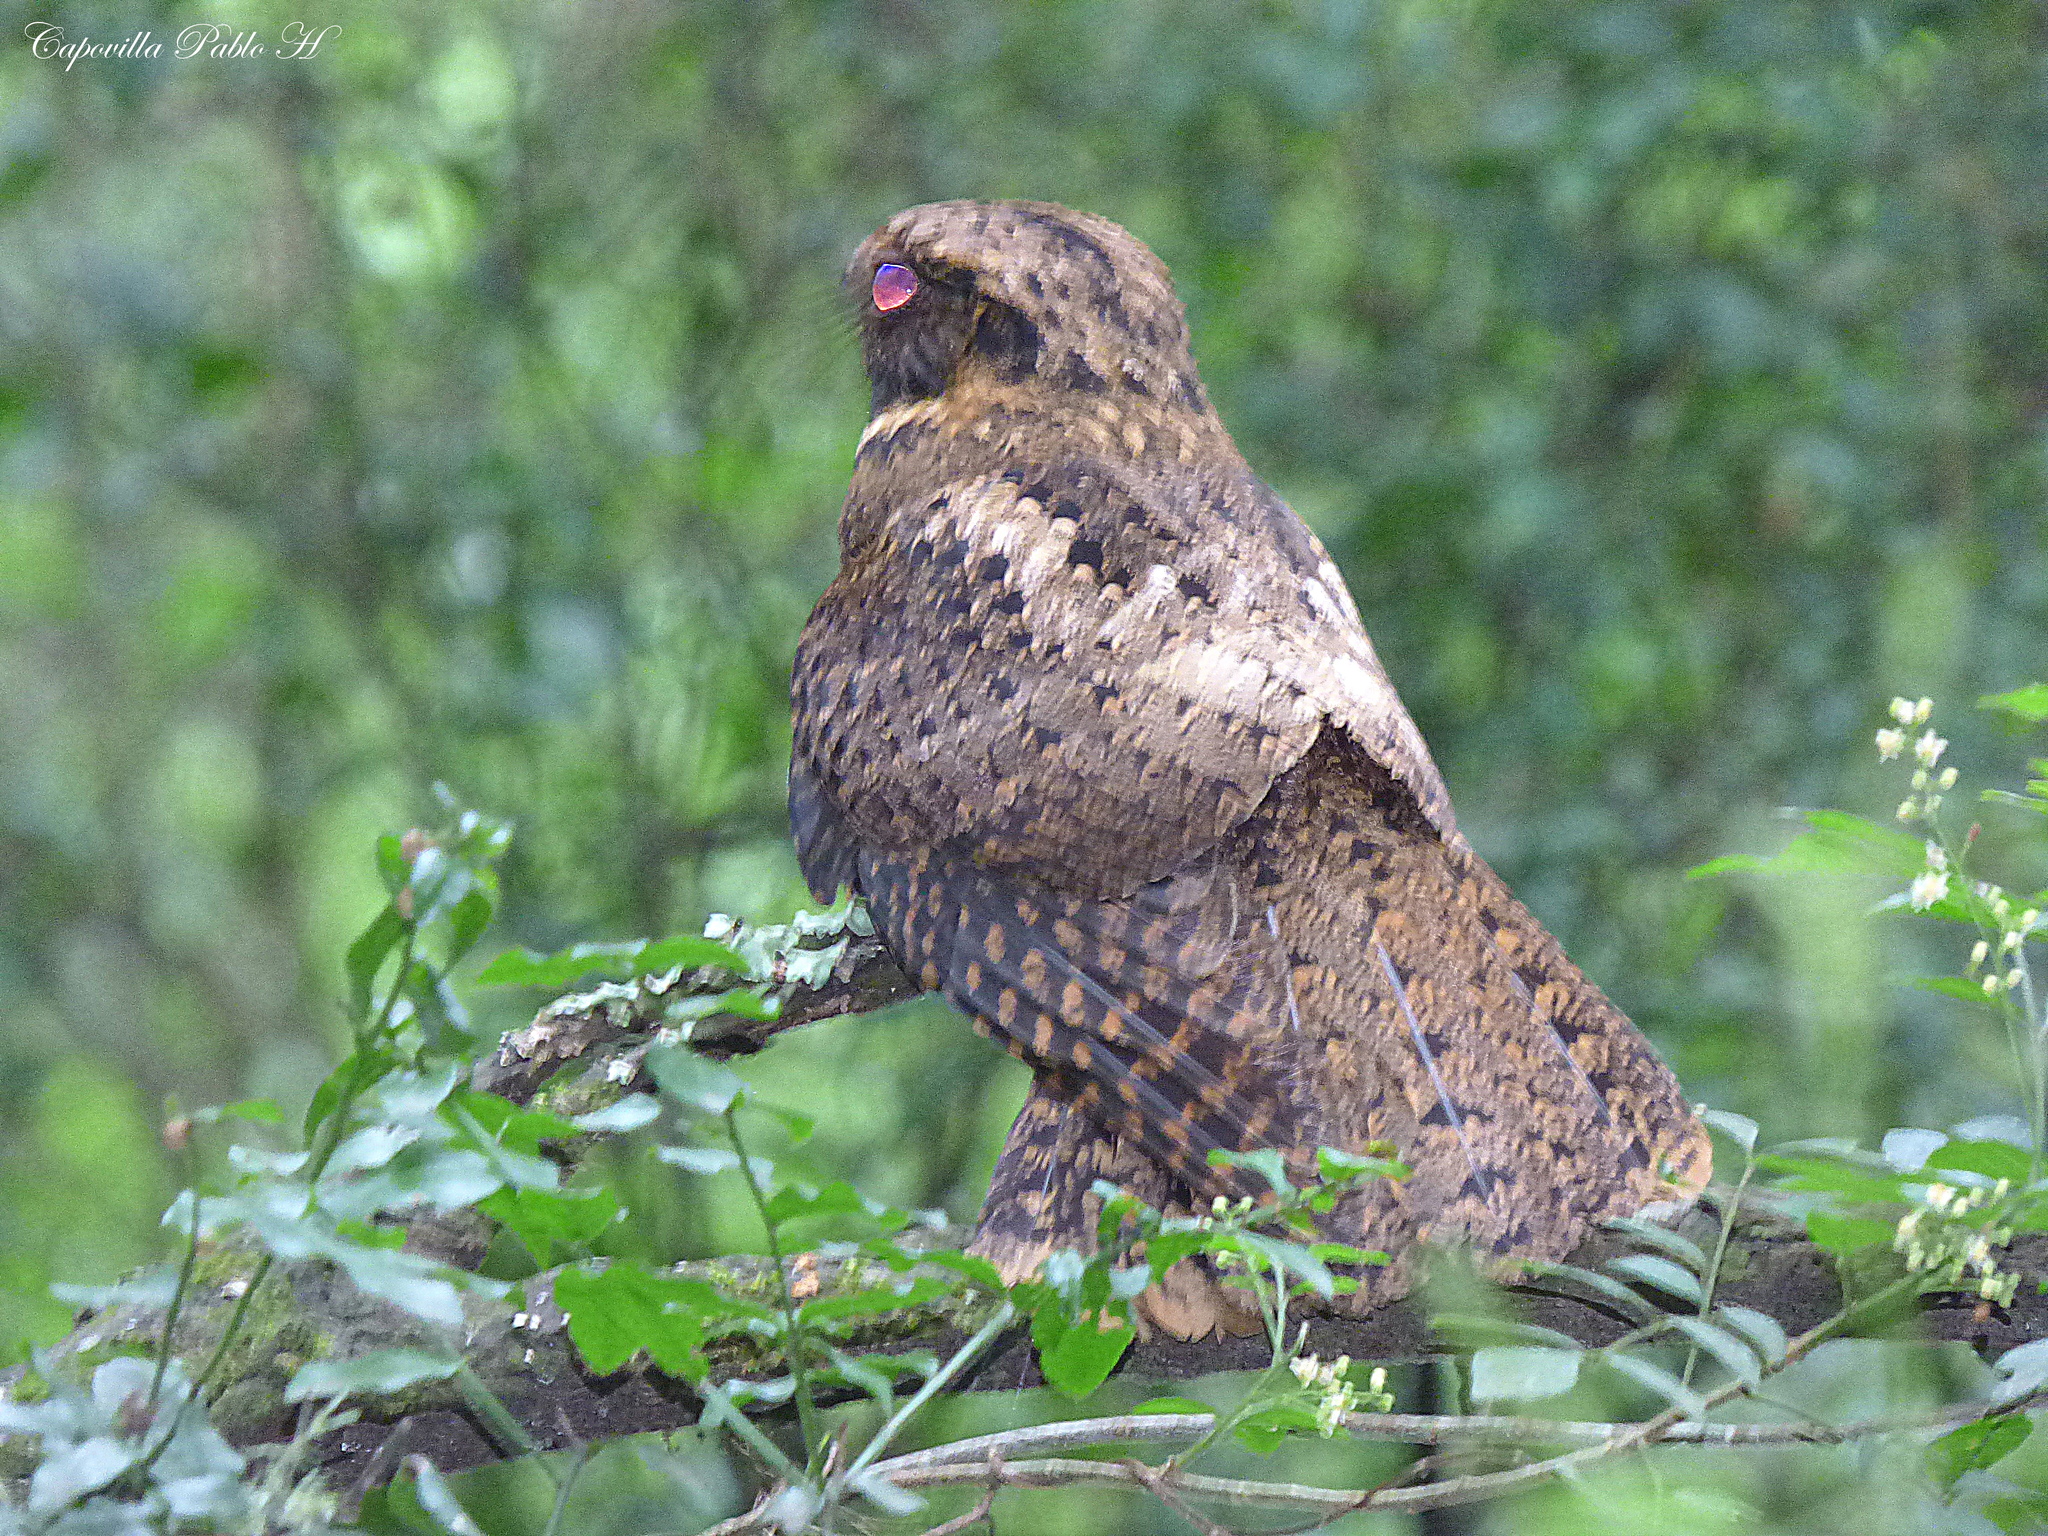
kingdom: Animalia
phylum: Chordata
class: Aves
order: Caprimulgiformes
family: Caprimulgidae
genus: Antrostomus
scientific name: Antrostomus rufus
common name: Rufous nightjar
